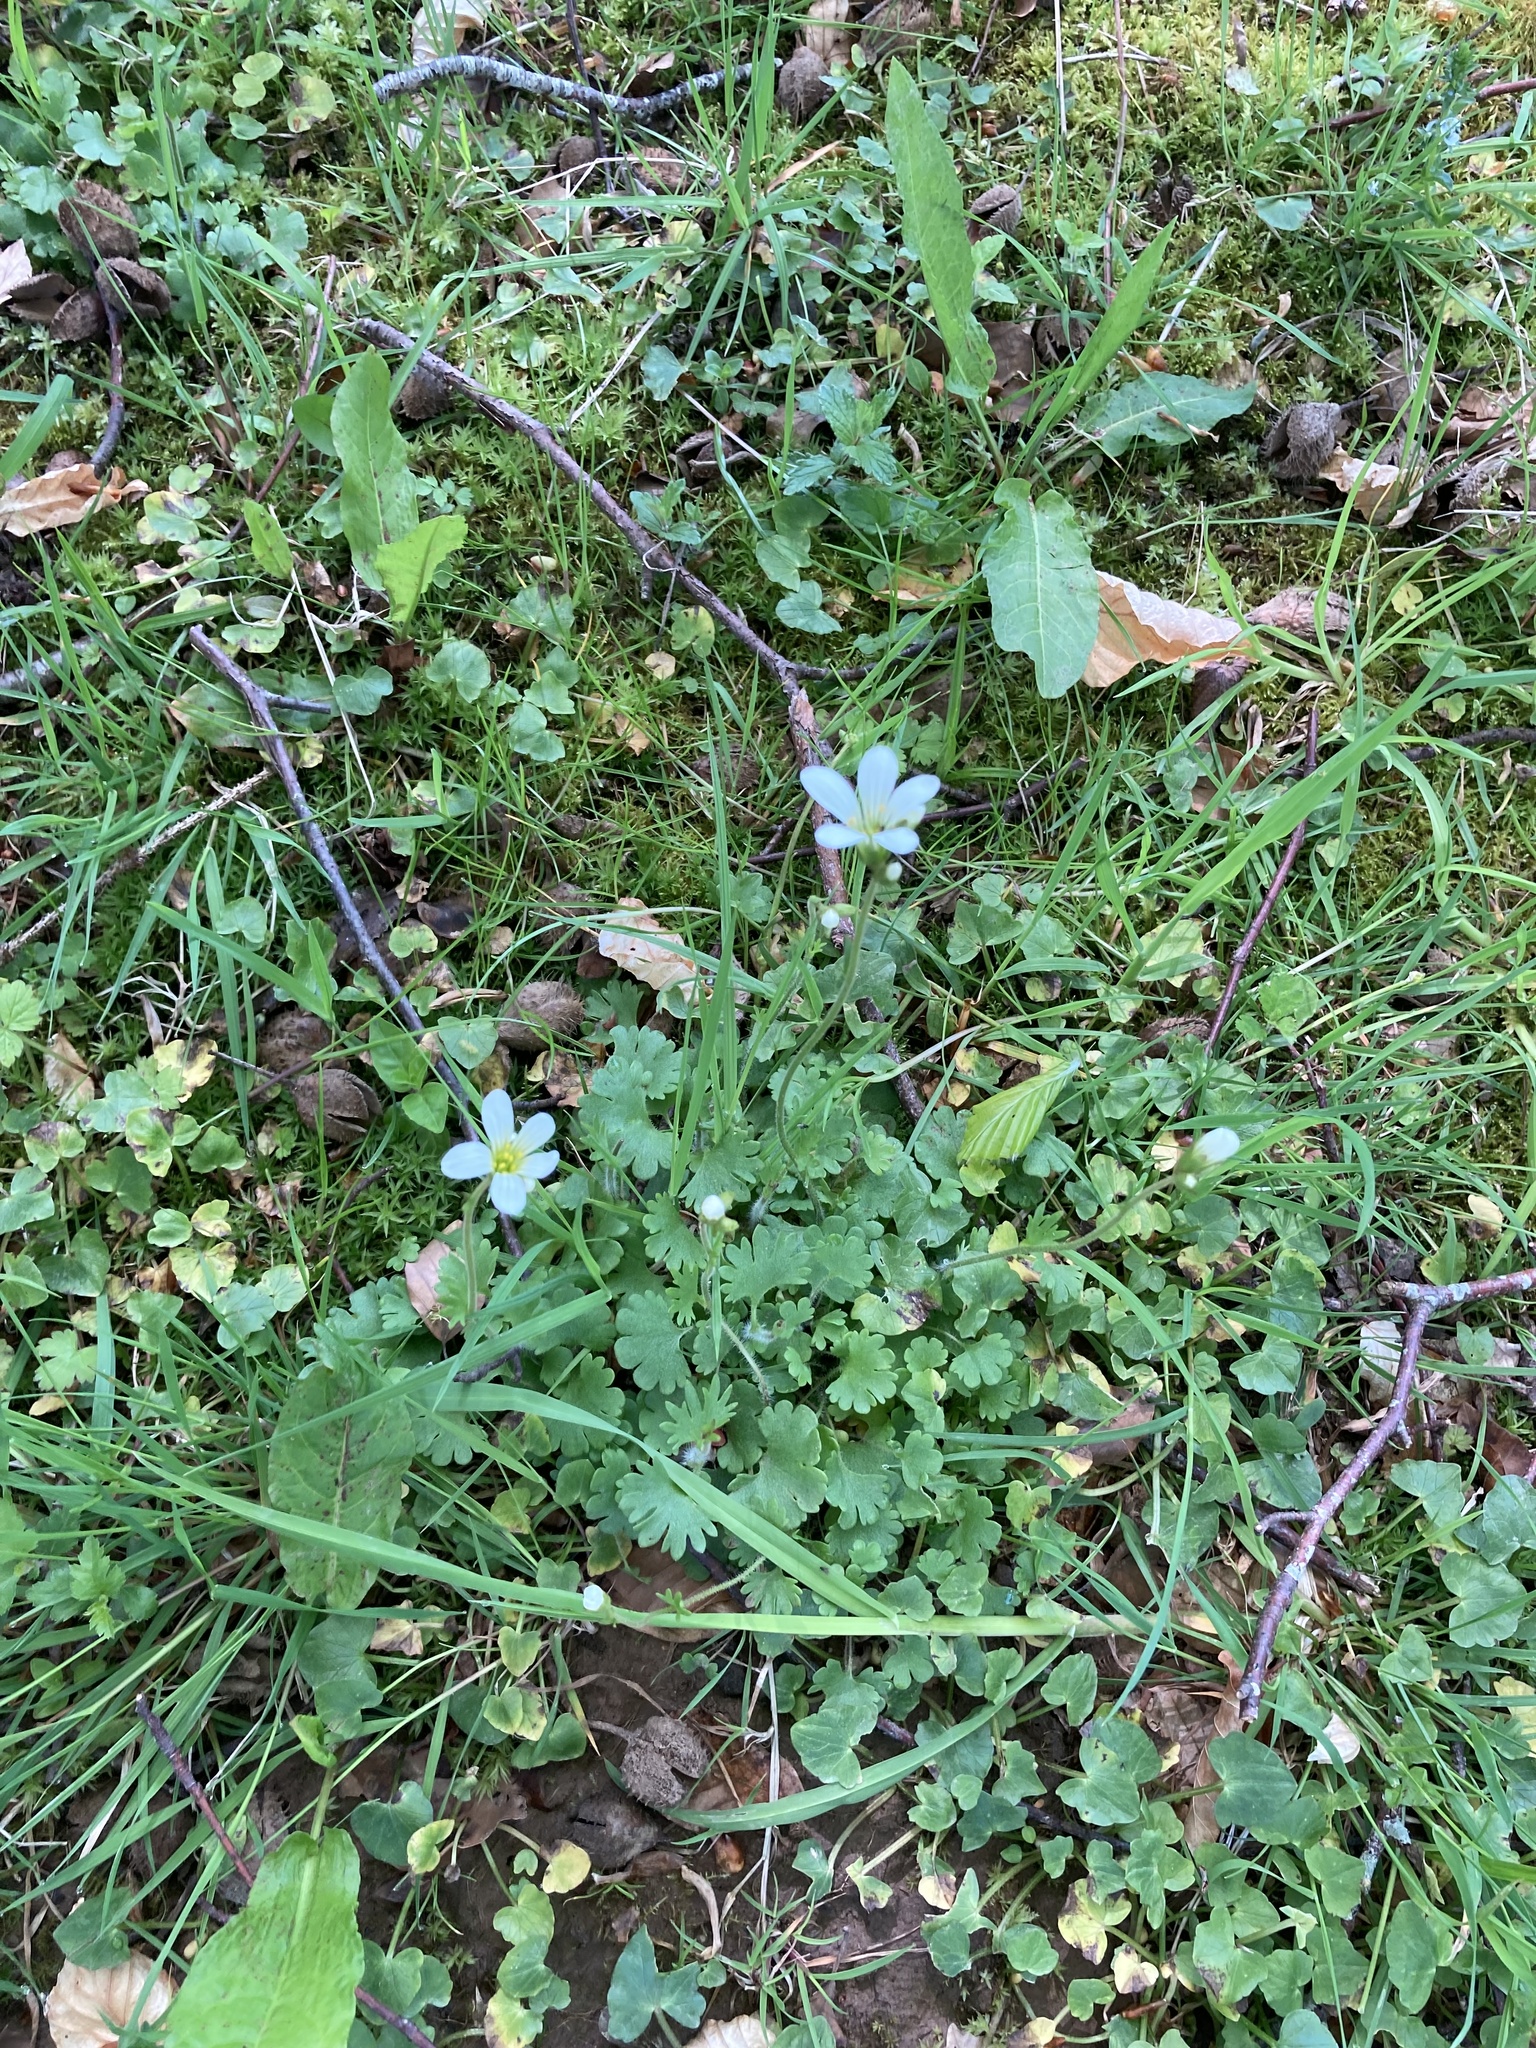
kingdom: Plantae
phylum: Tracheophyta
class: Magnoliopsida
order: Saxifragales
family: Saxifragaceae
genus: Saxifraga
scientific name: Saxifraga granulata
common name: Meadow saxifrage
